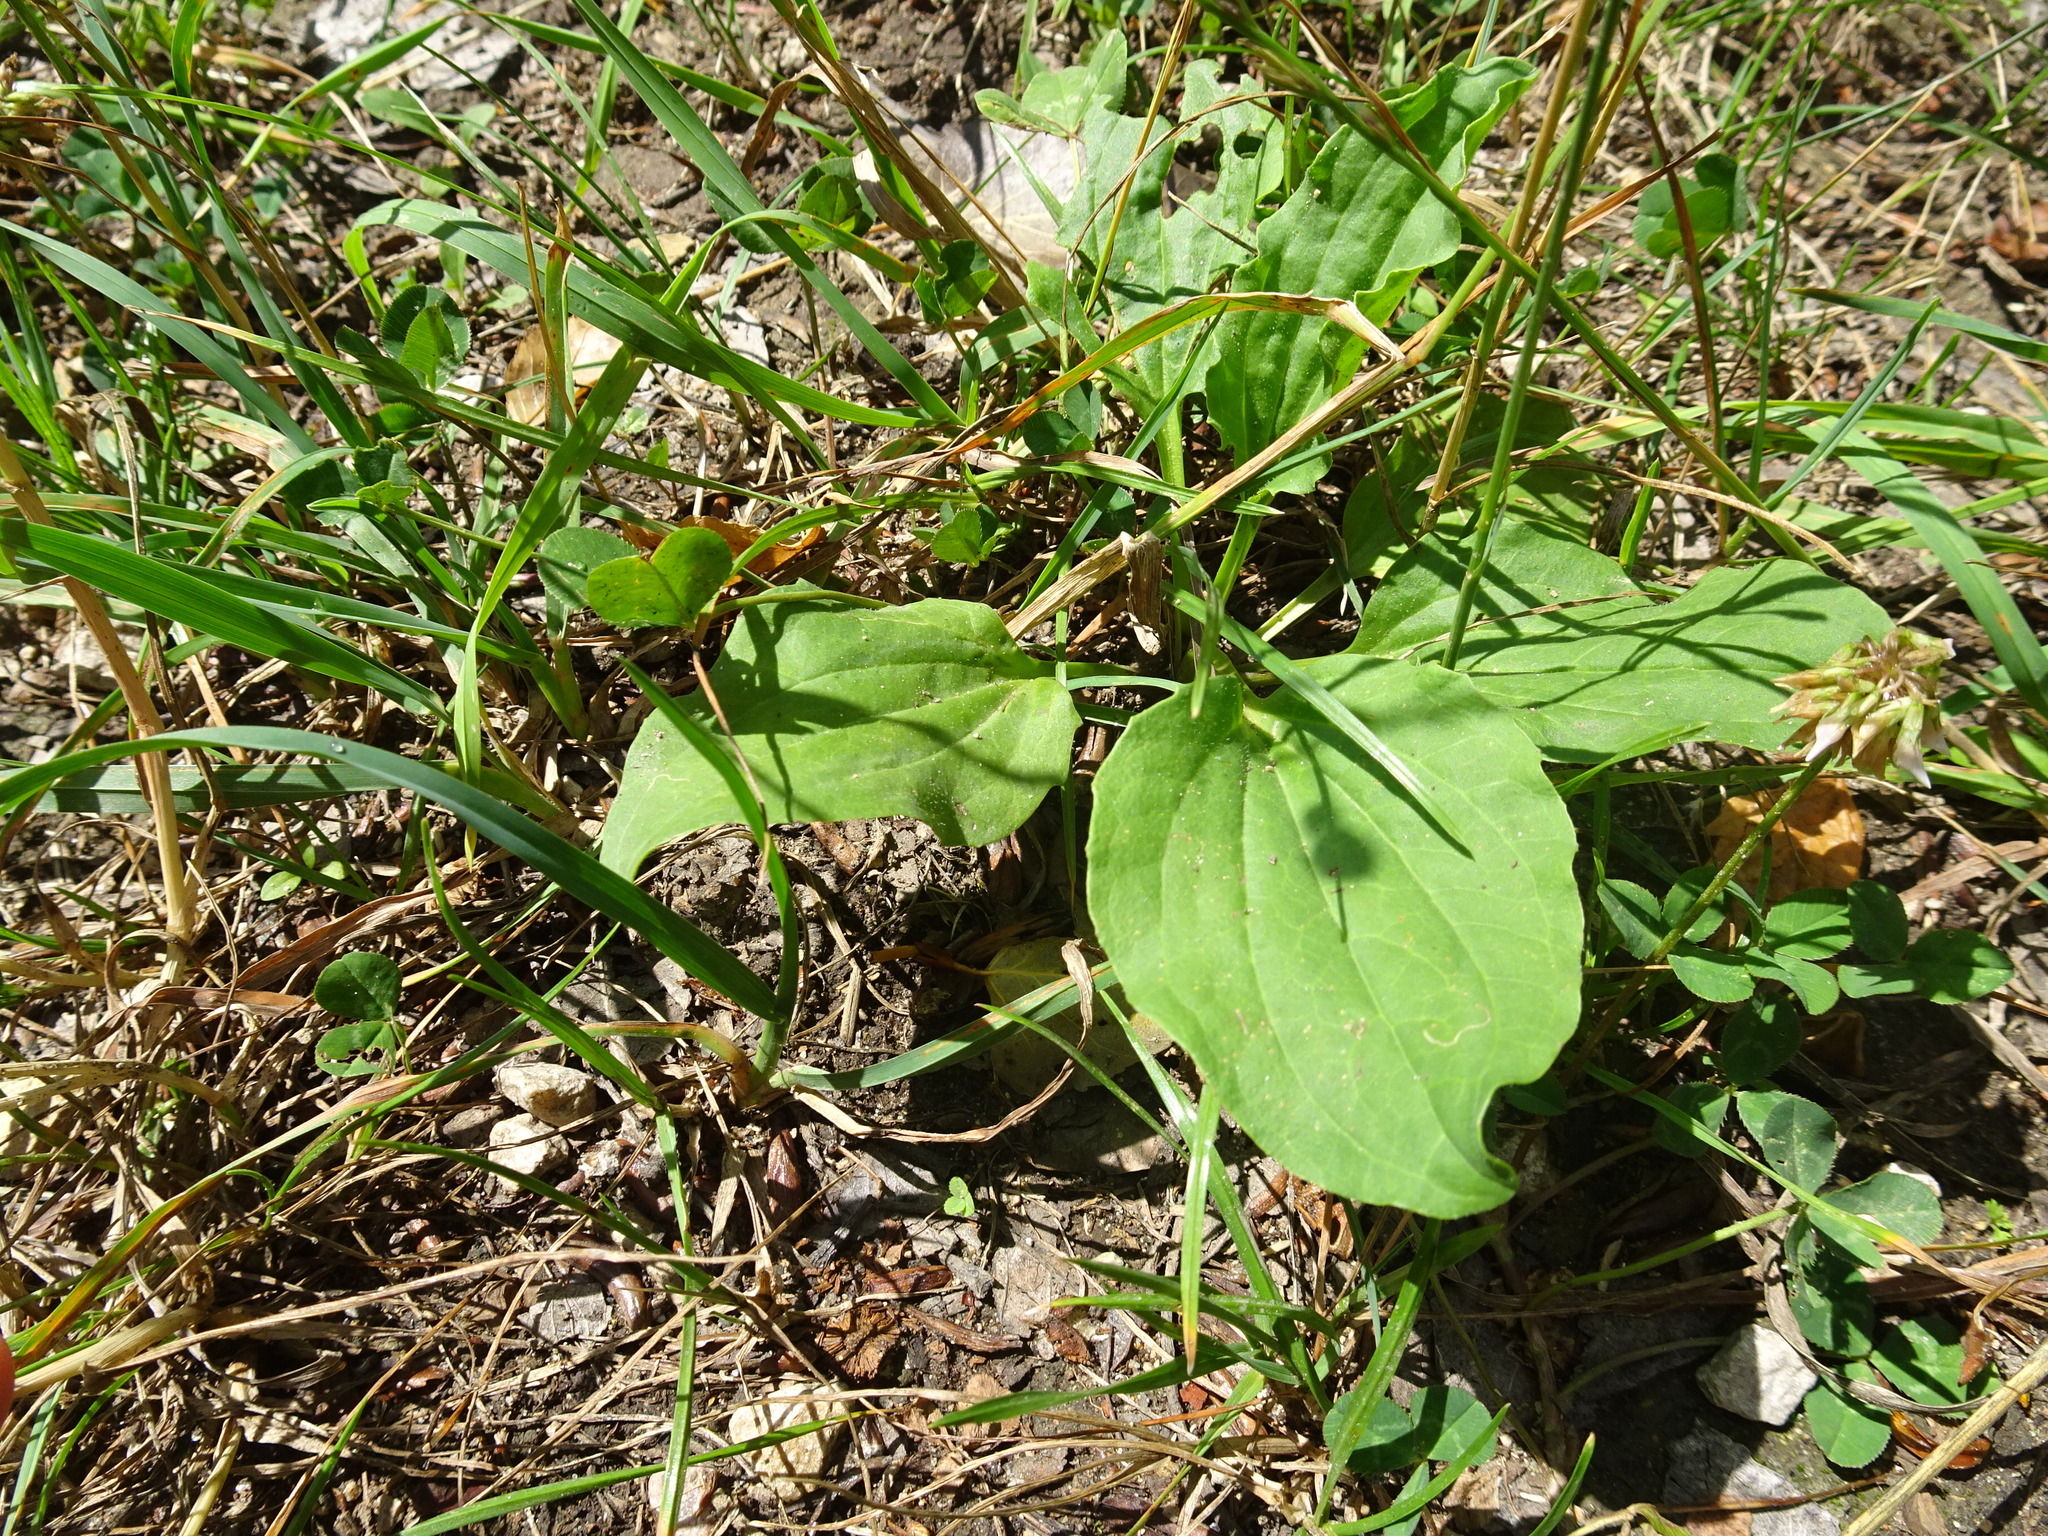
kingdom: Plantae
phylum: Tracheophyta
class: Magnoliopsida
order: Lamiales
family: Plantaginaceae
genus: Plantago
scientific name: Plantago major
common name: Common plantain
